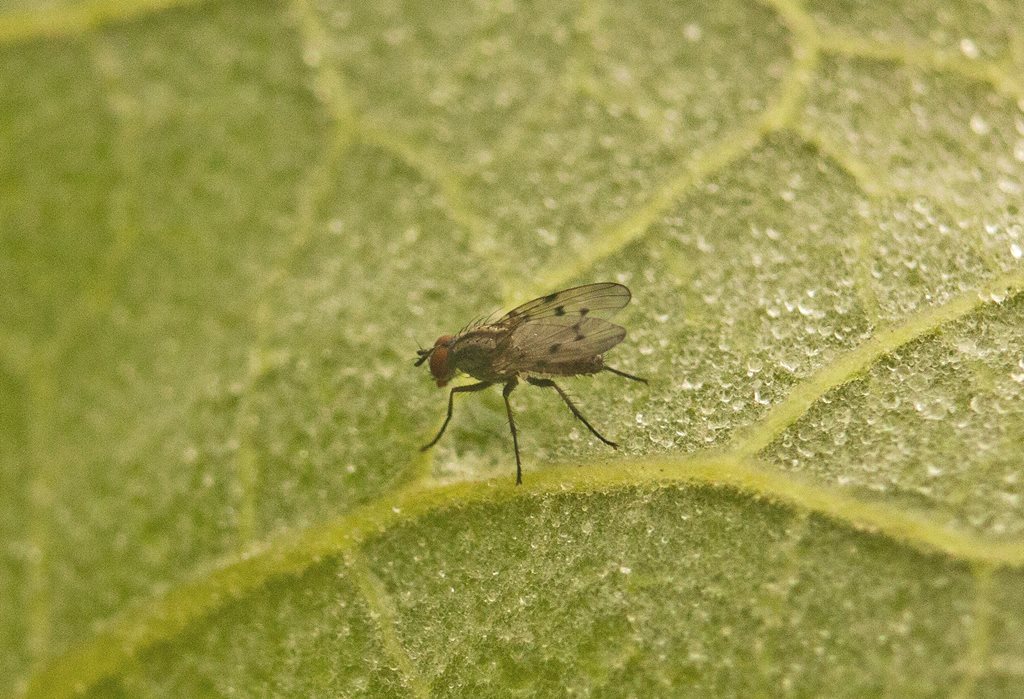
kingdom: Animalia
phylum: Arthropoda
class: Insecta
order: Diptera
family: Anthomyiidae
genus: Anthomyia
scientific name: Anthomyia punctipennis
